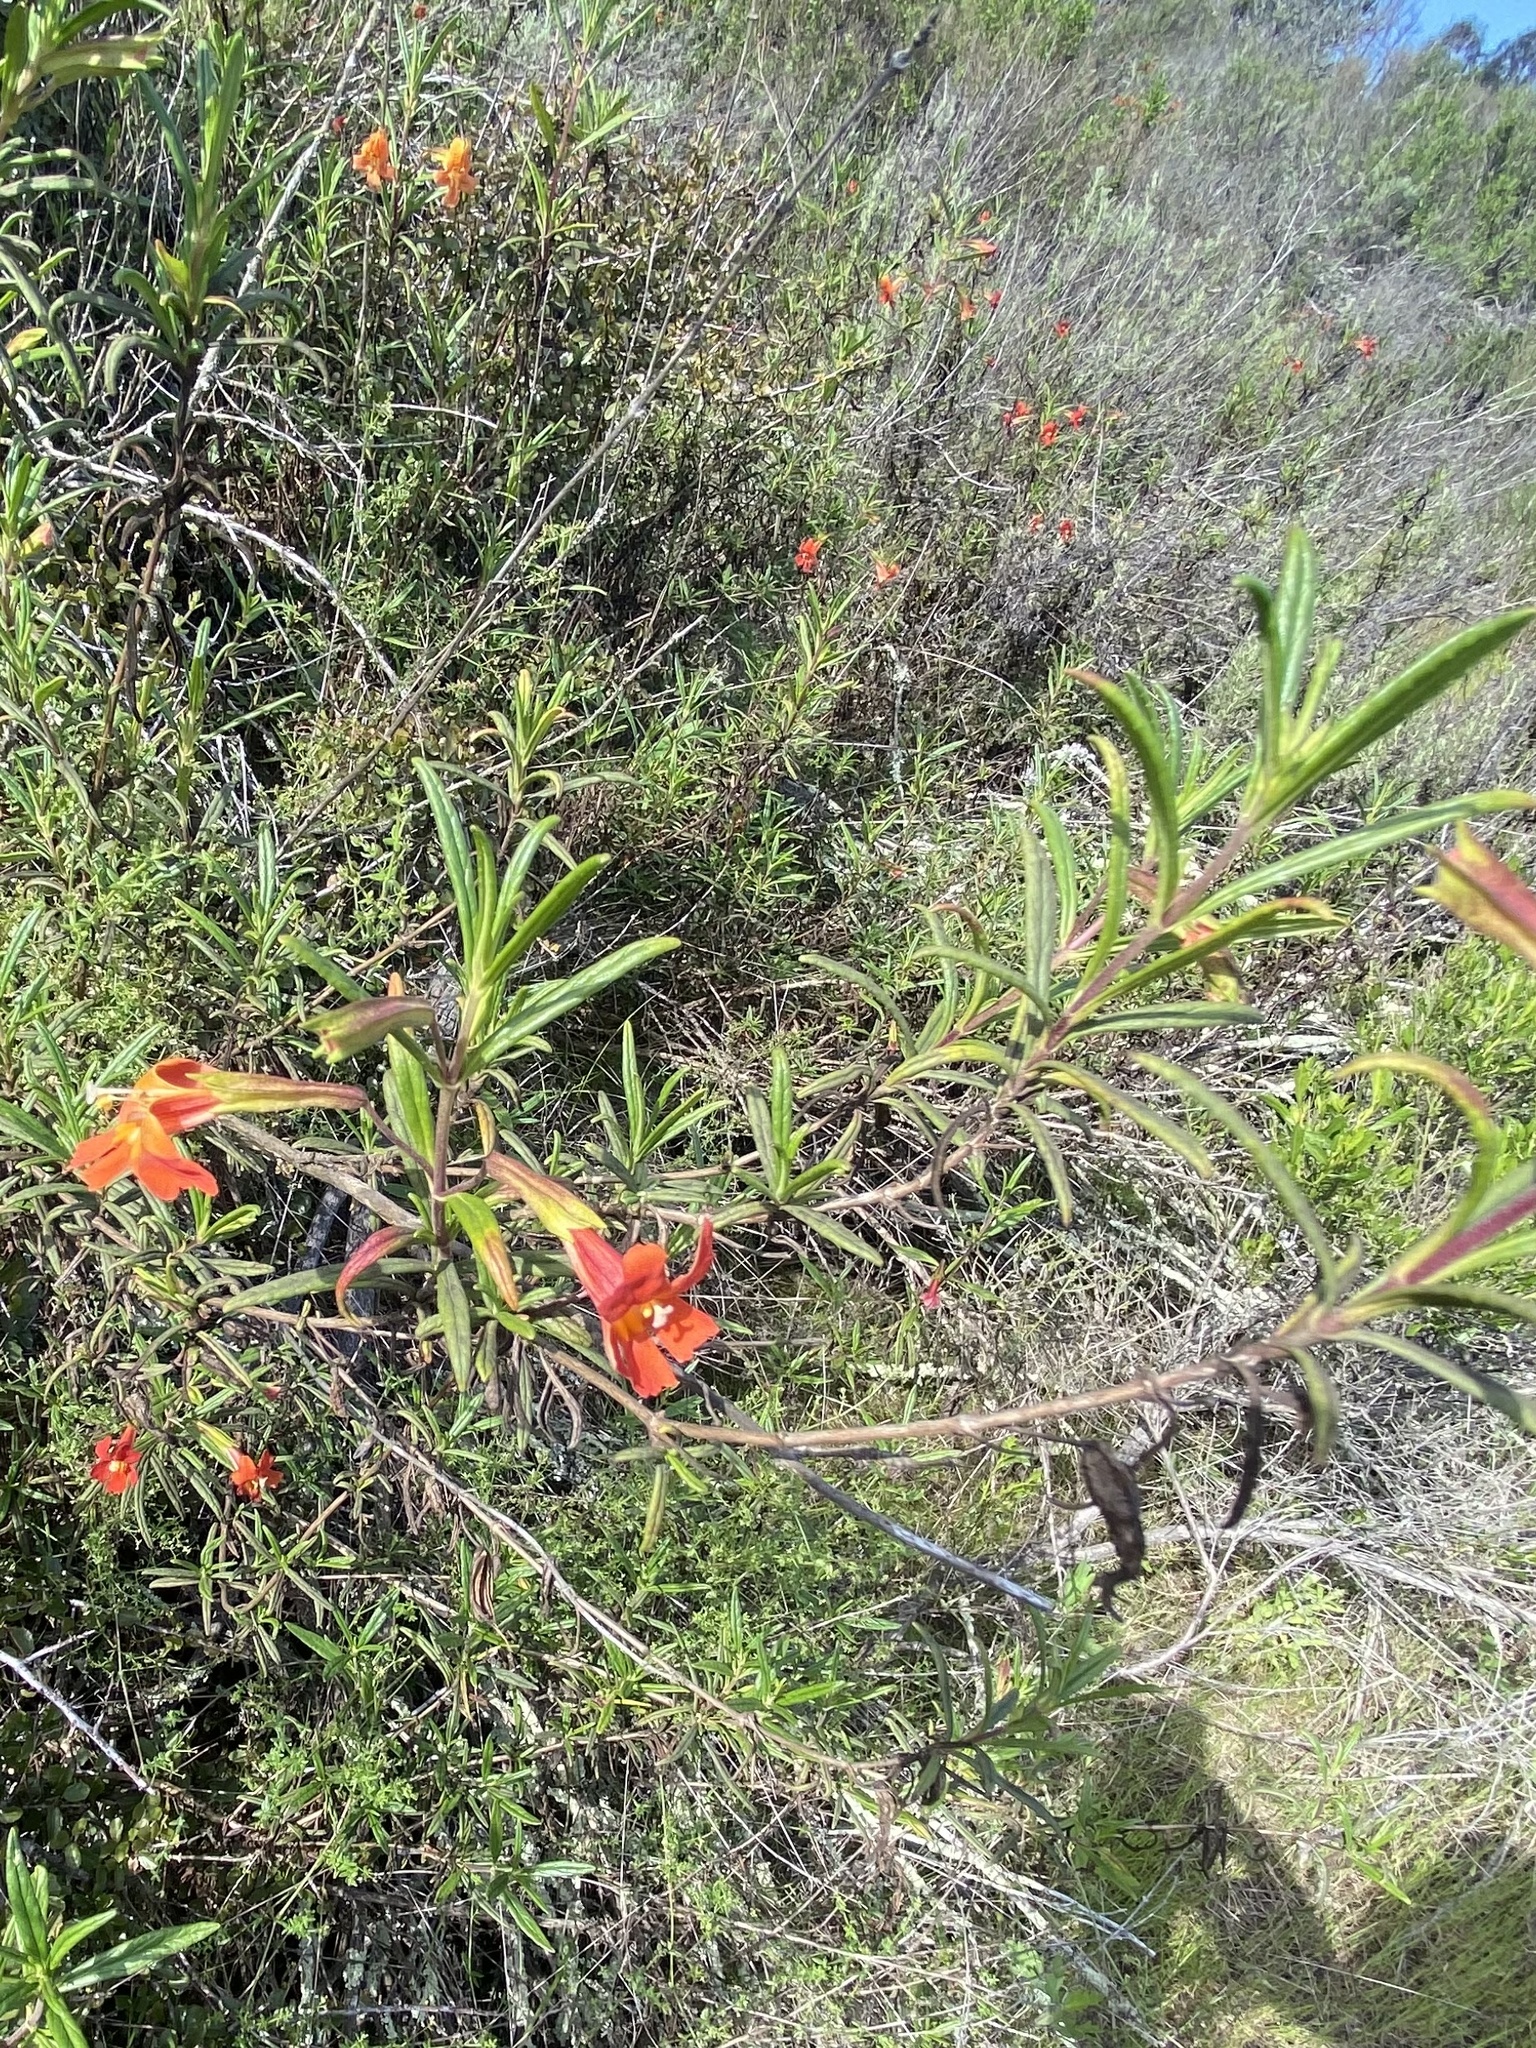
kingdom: Plantae
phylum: Tracheophyta
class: Magnoliopsida
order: Lamiales
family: Phrymaceae
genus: Diplacus
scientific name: Diplacus puniceus
